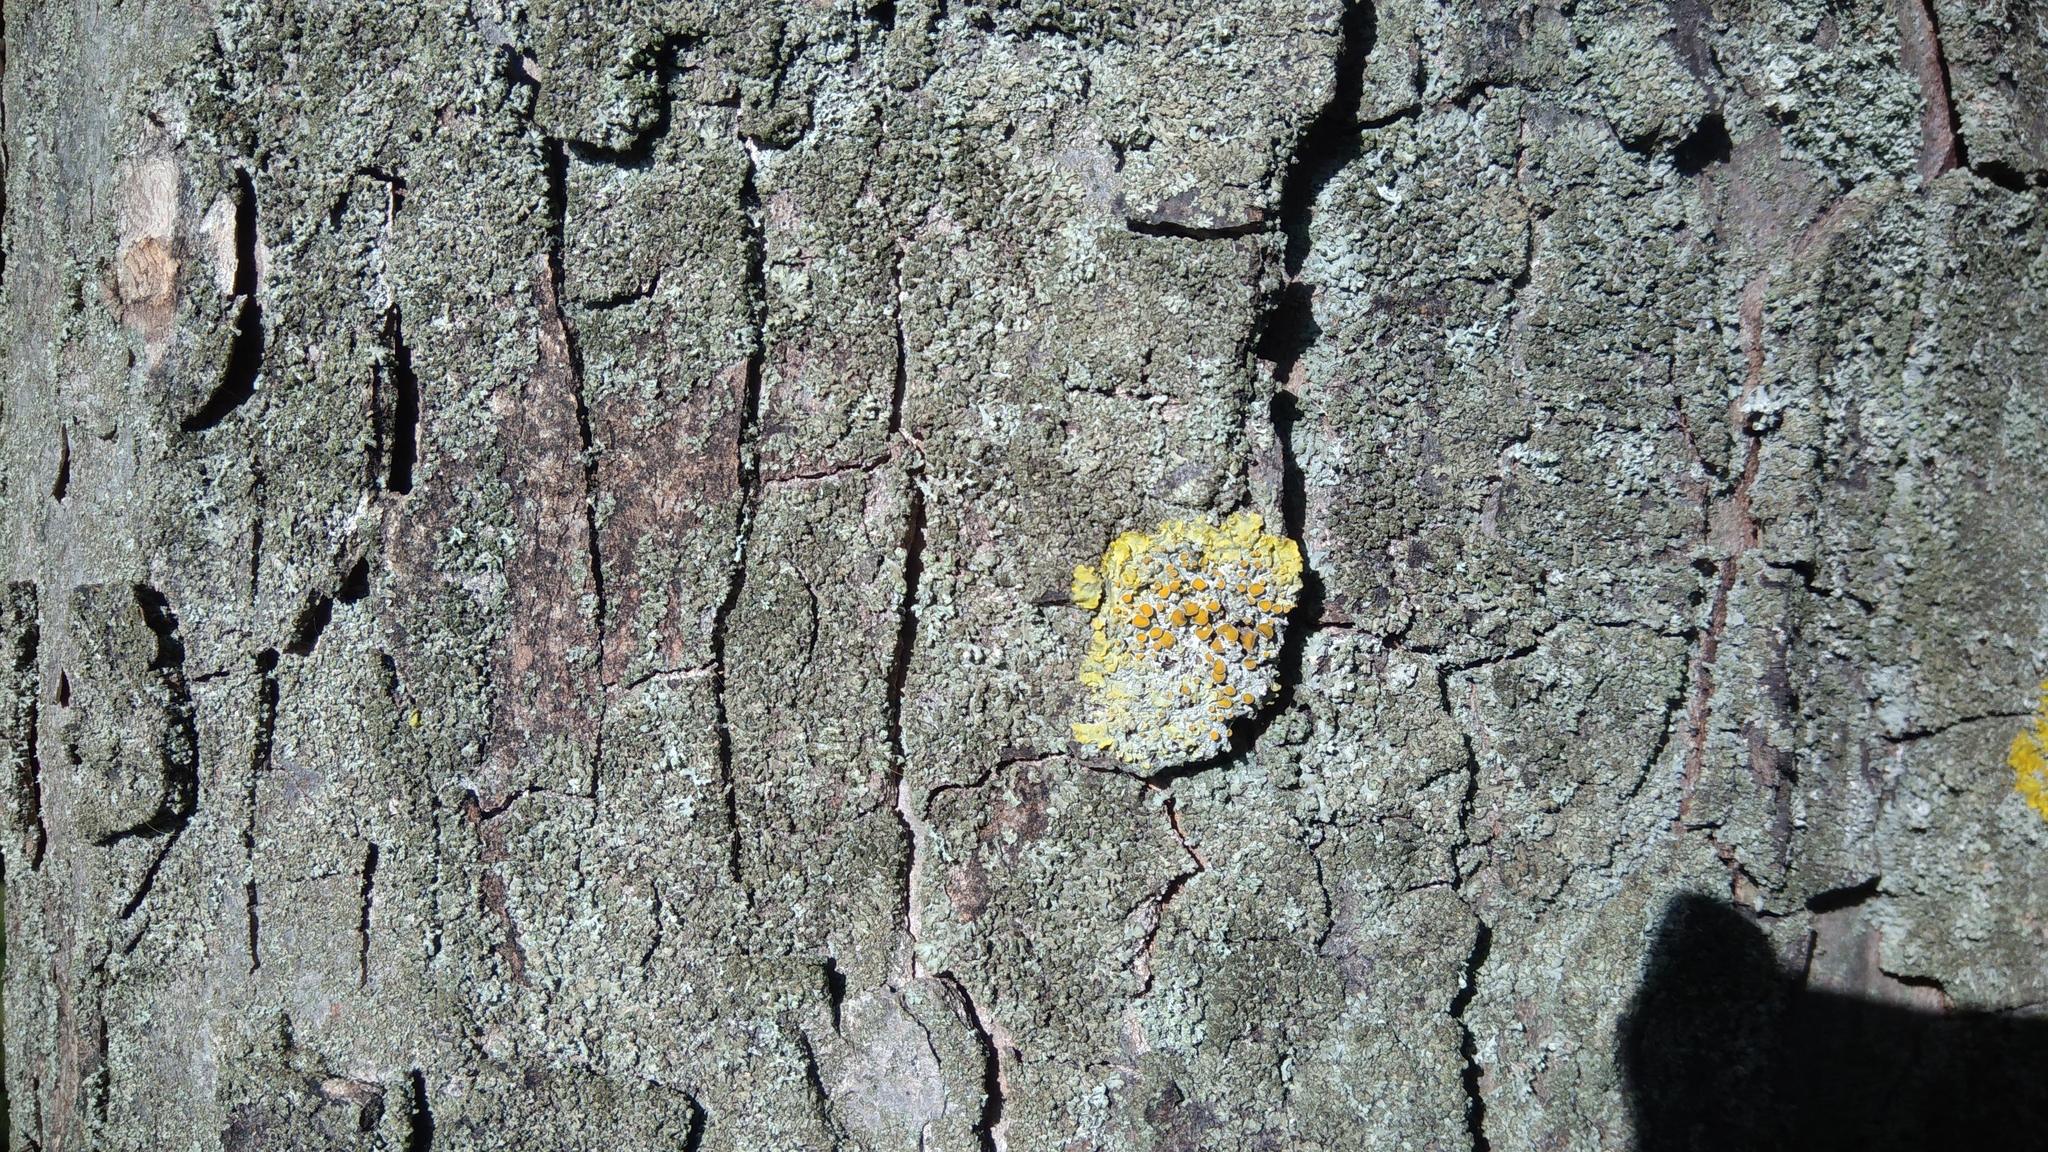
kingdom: Fungi
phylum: Ascomycota
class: Lecanoromycetes
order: Teloschistales
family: Teloschistaceae
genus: Xanthoria
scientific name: Xanthoria parietina
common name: Common orange lichen
